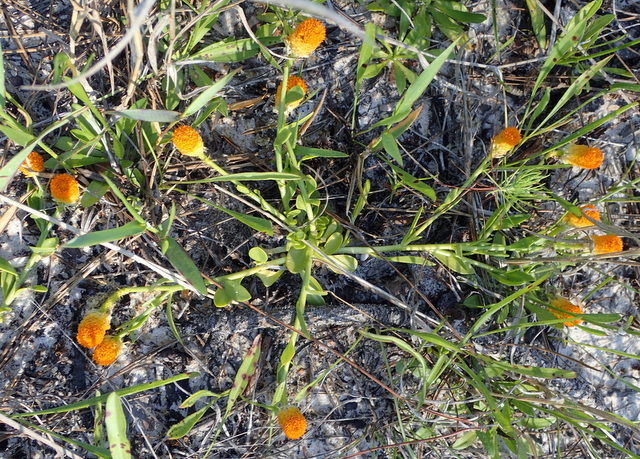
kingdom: Plantae
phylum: Tracheophyta
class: Magnoliopsida
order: Fabales
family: Polygalaceae
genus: Polygala
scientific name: Polygala lutea
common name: Orange milkwort
